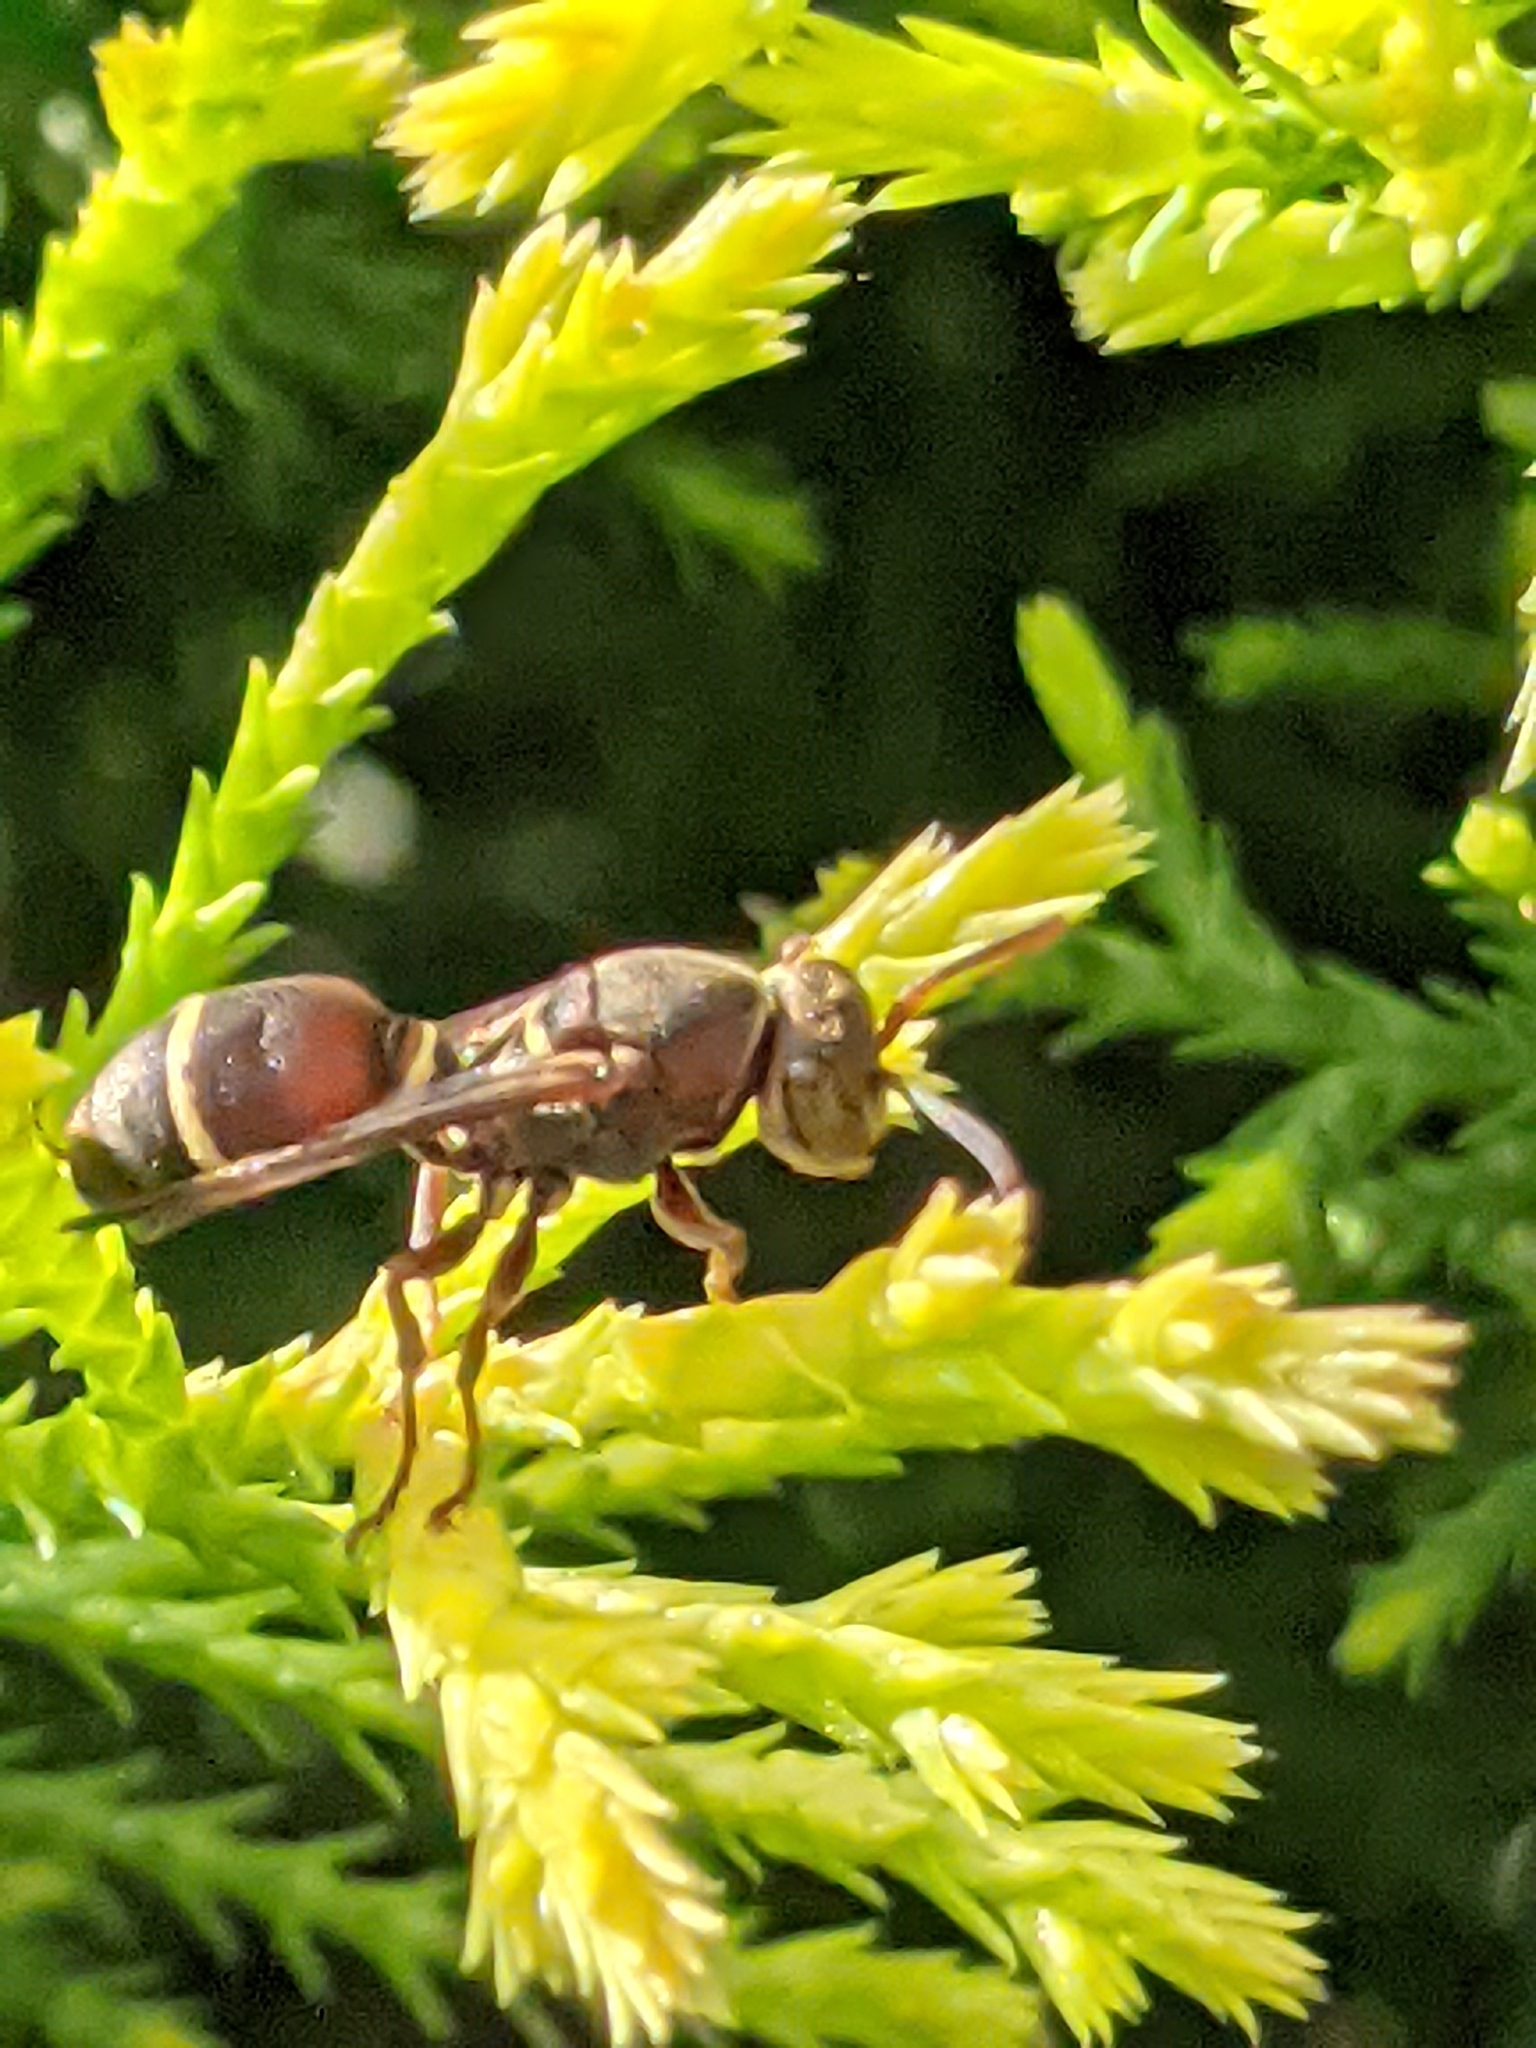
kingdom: Animalia
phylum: Arthropoda
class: Insecta
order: Hymenoptera
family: Vespidae
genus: Ropalidia
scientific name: Ropalidia rufoplagiata
